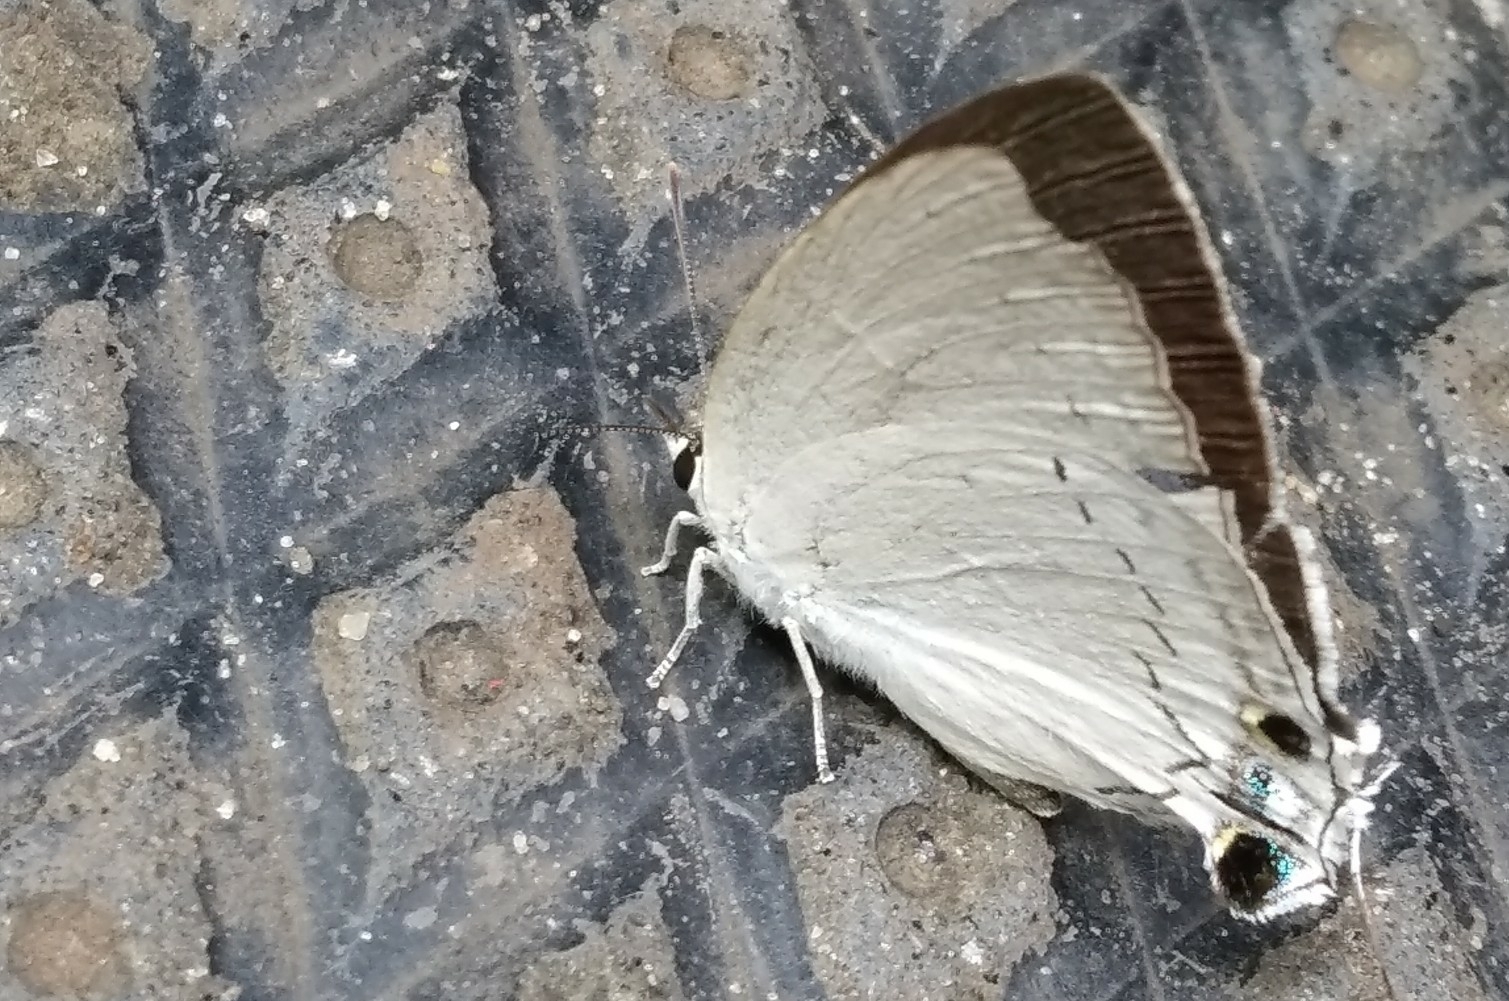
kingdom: Animalia
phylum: Arthropoda
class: Insecta
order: Lepidoptera
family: Lycaenidae
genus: Tajuria
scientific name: Tajuria cippus
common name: Peacock royal
